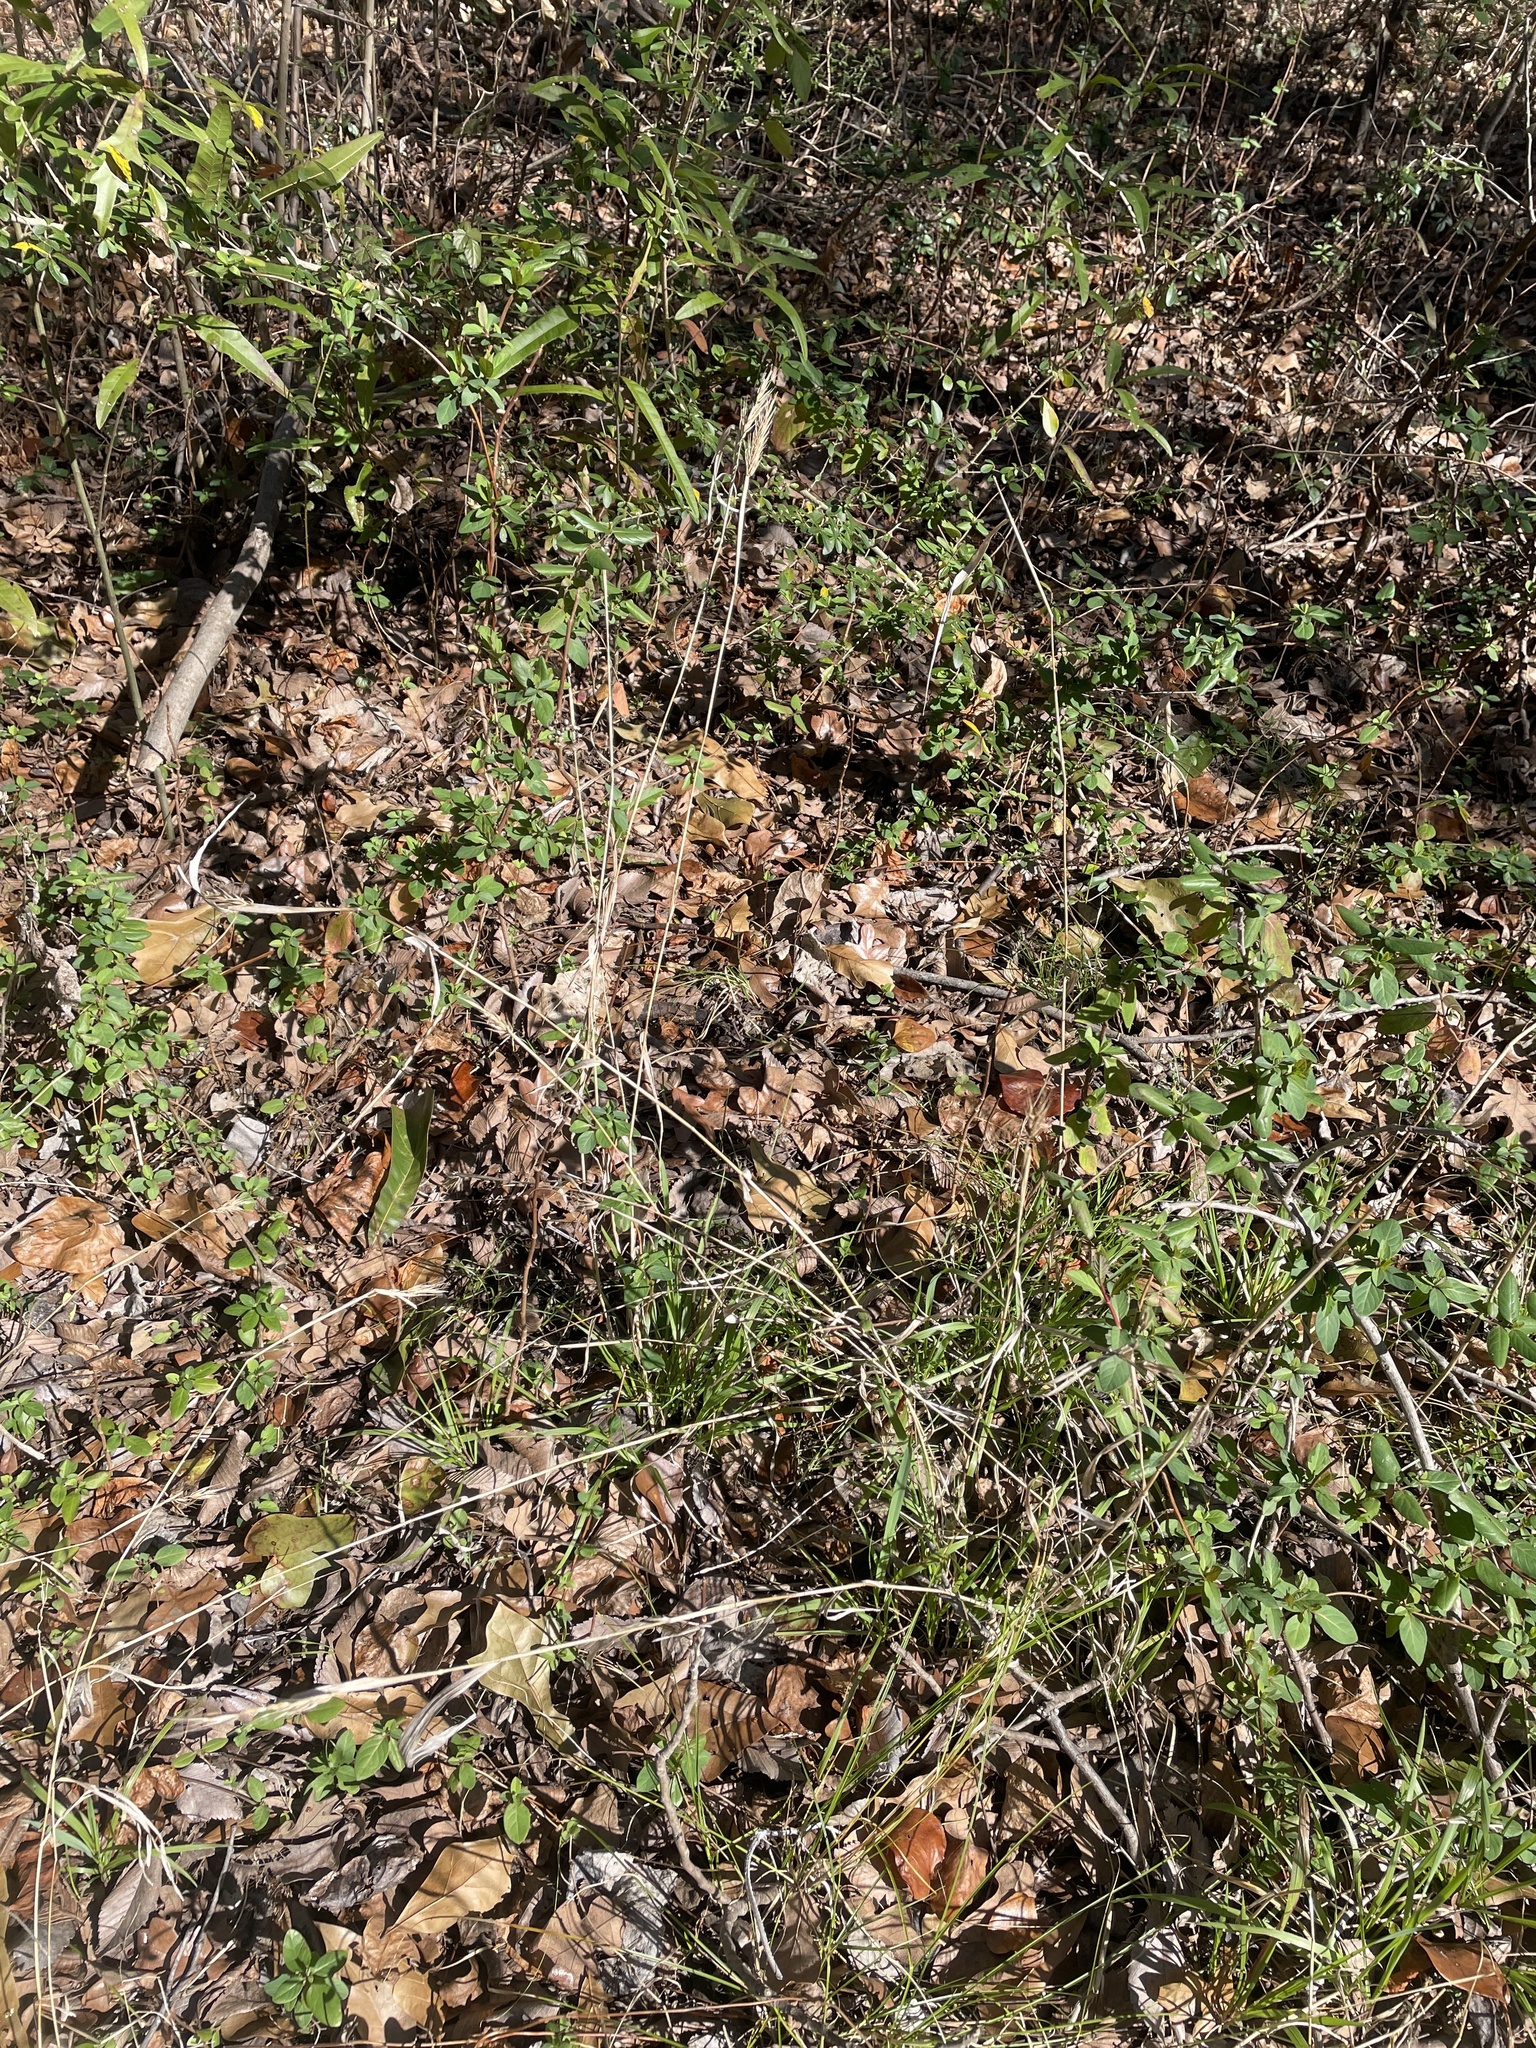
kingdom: Plantae
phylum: Tracheophyta
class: Liliopsida
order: Poales
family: Poaceae
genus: Elymus
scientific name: Elymus virginicus
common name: Common eastern wildrye
